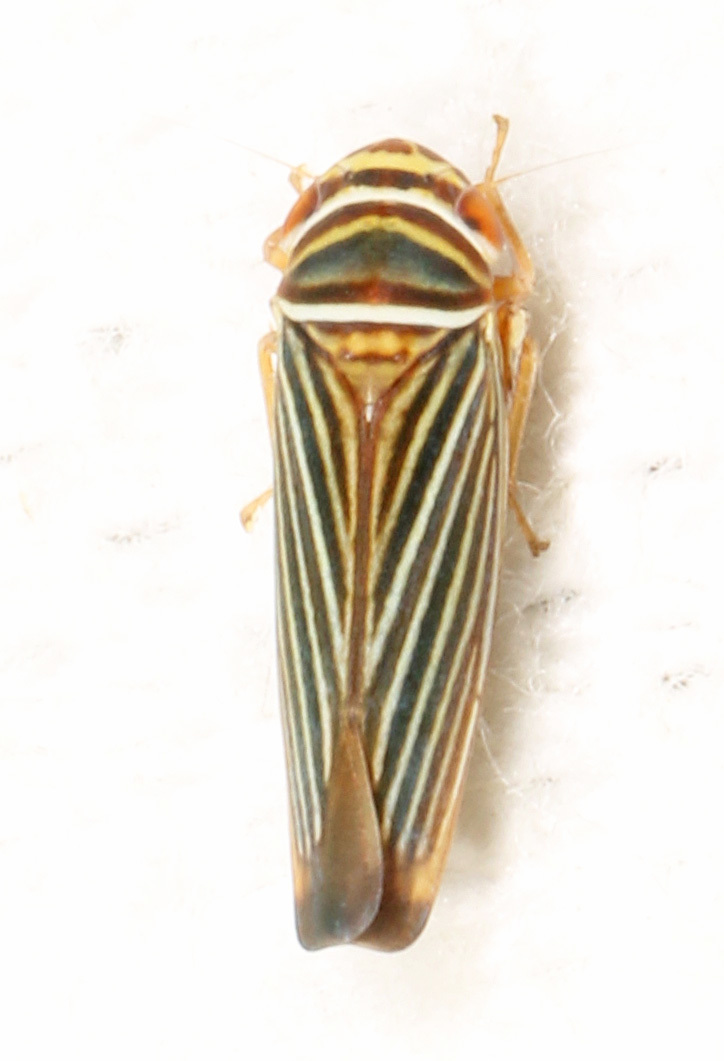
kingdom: Animalia
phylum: Arthropoda
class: Insecta
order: Hemiptera
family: Cicadellidae
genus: Tylozygus
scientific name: Tylozygus bifidus
